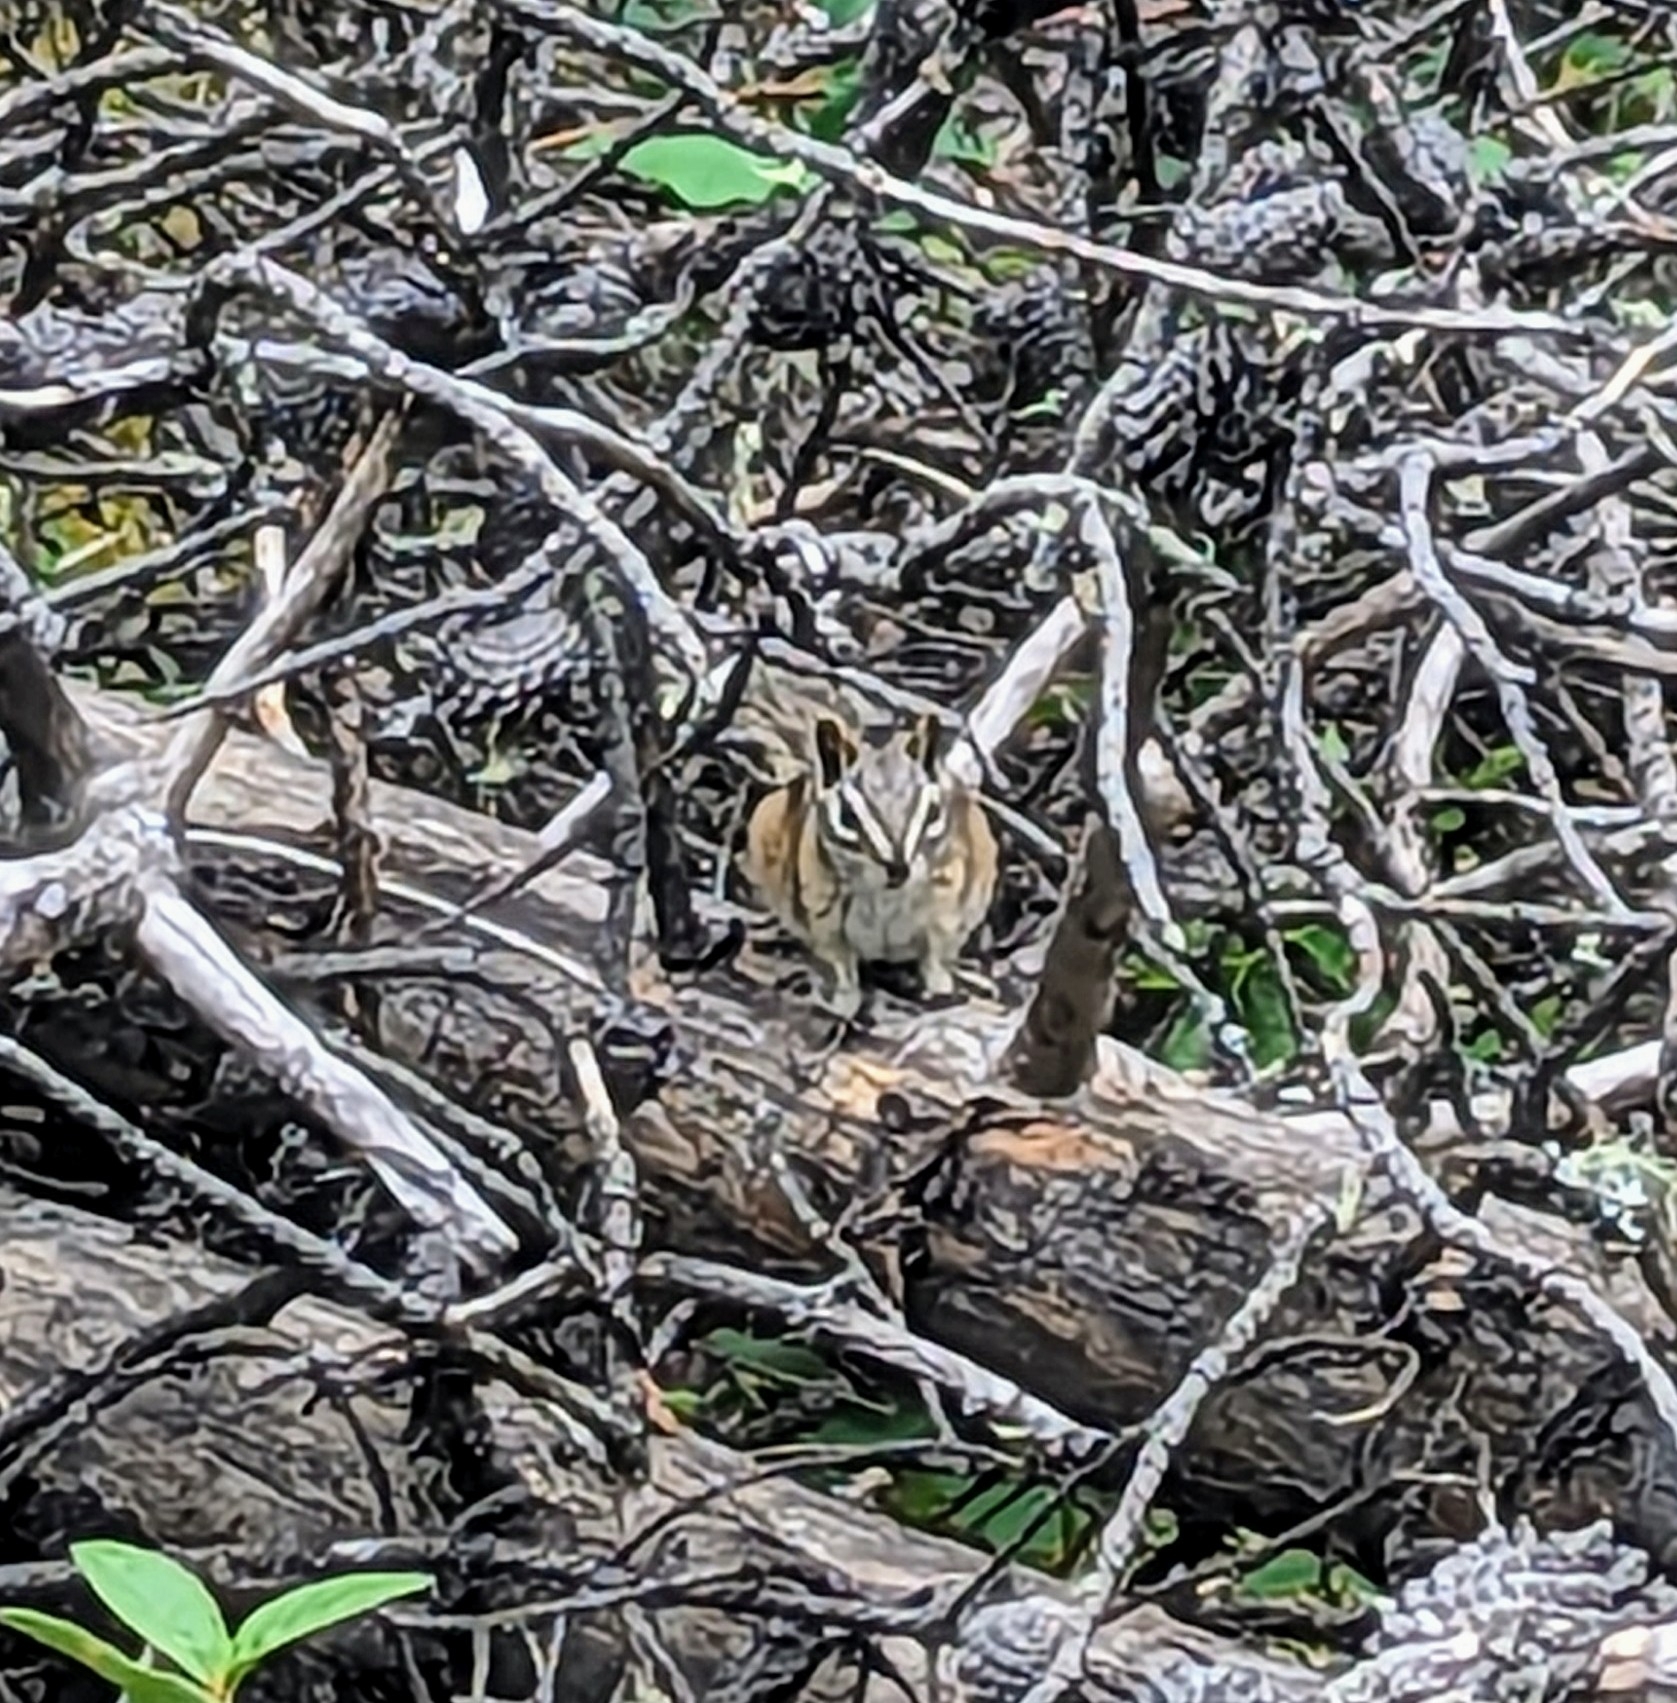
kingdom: Animalia
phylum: Chordata
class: Mammalia
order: Rodentia
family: Sciuridae
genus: Tamias
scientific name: Tamias minimus
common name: Least chipmunk
